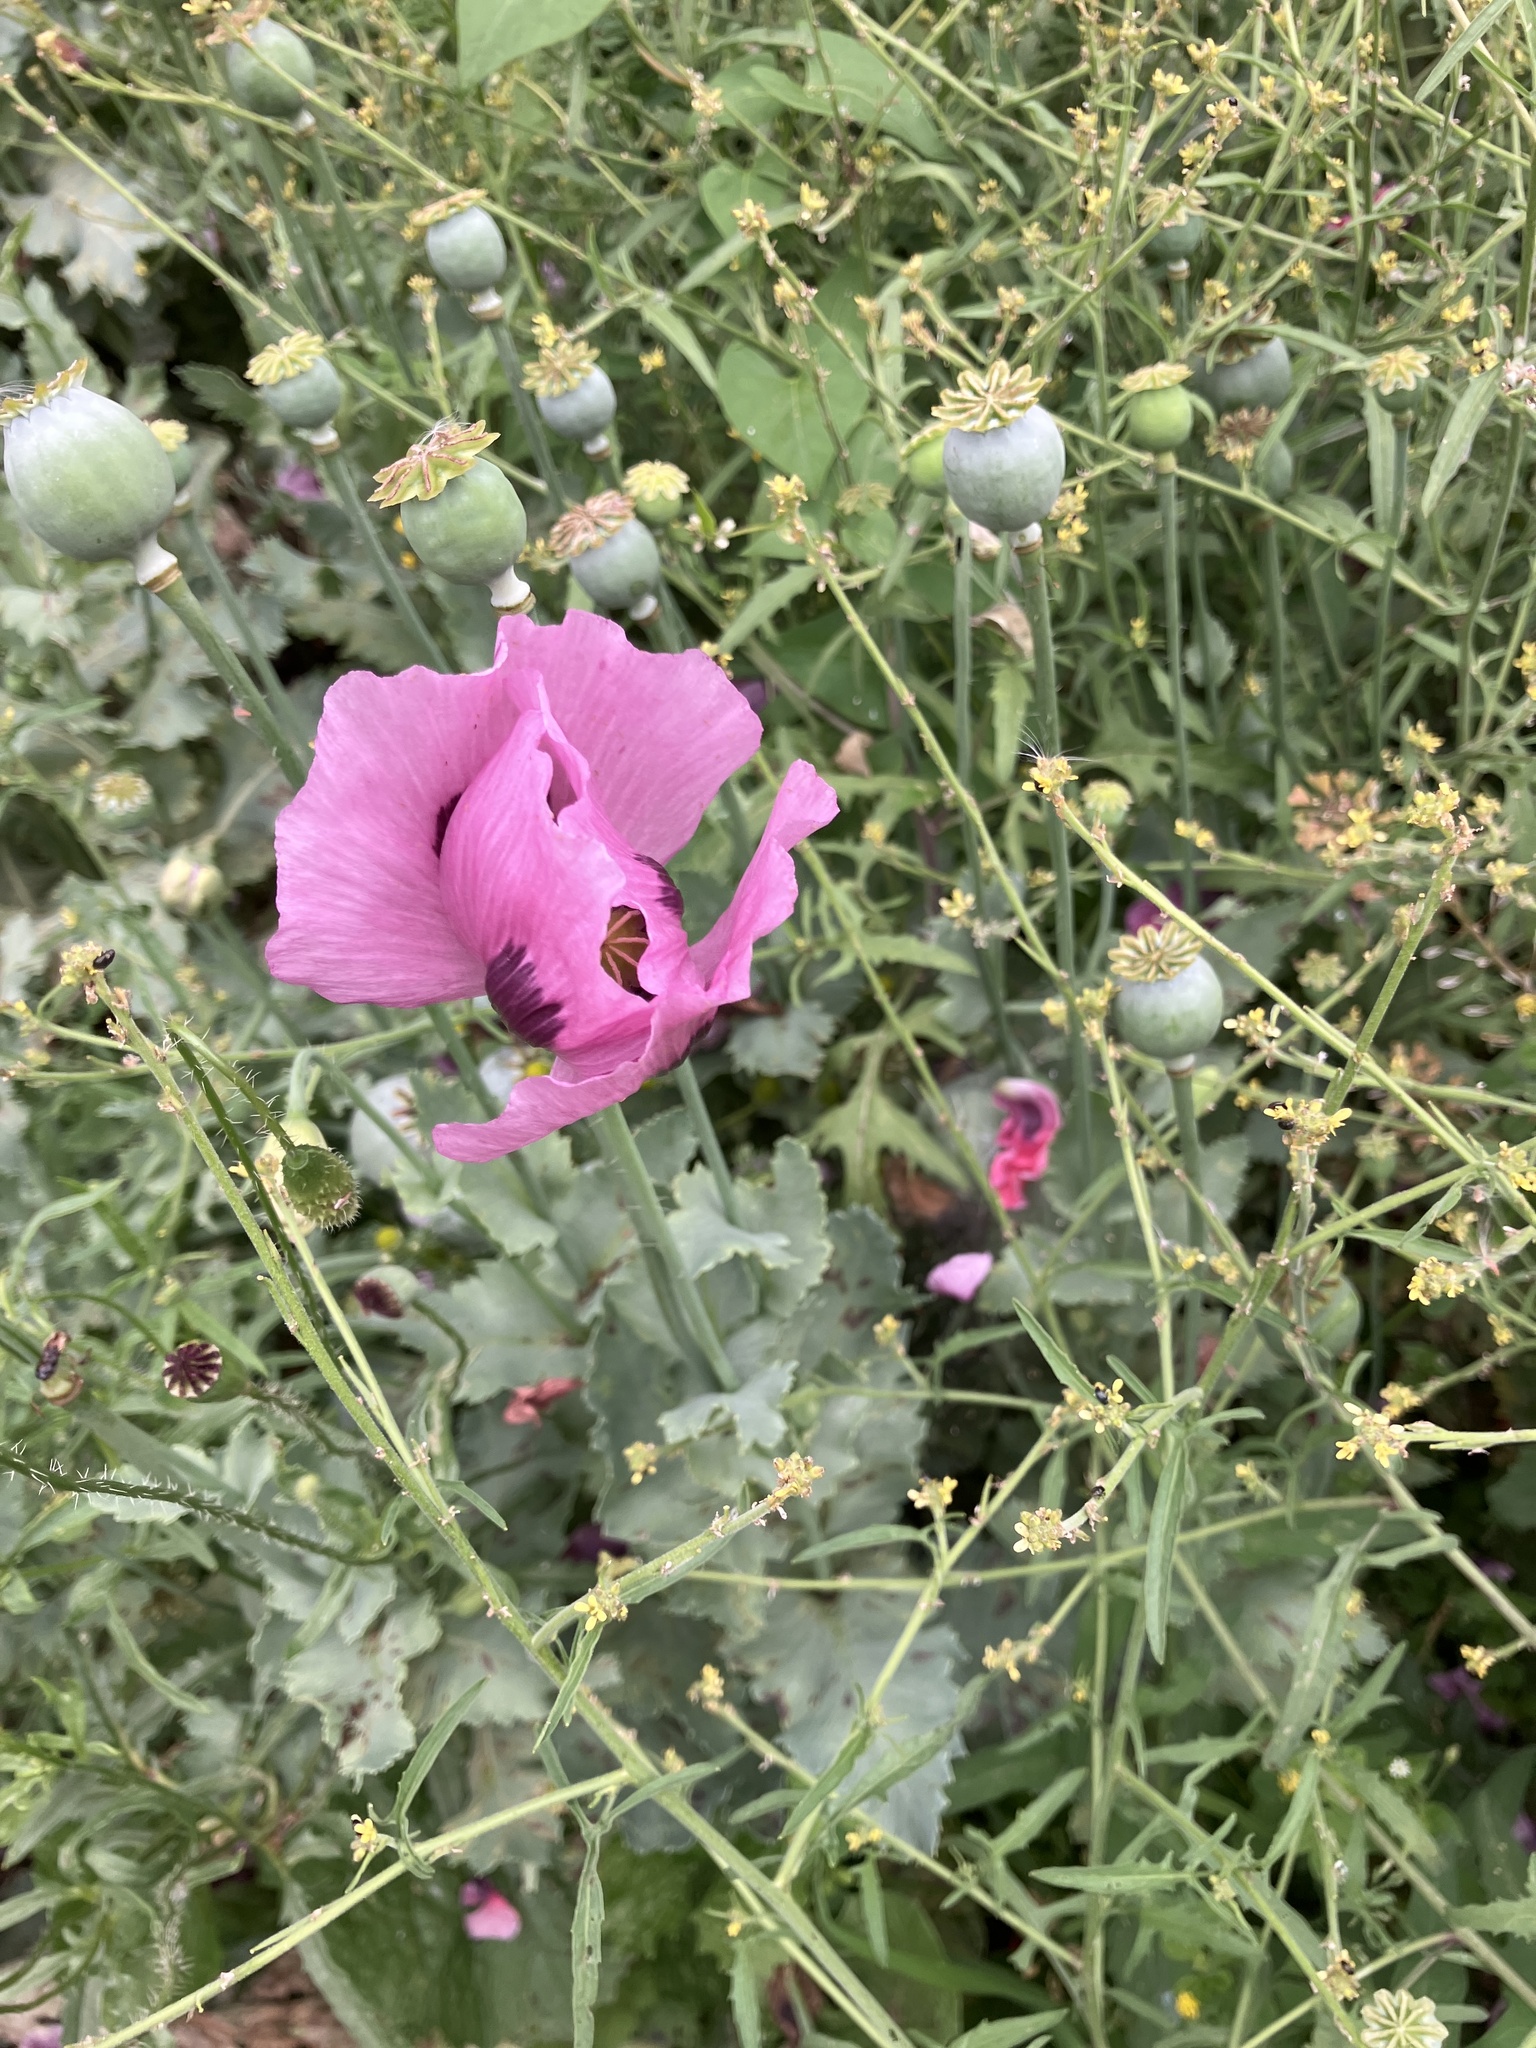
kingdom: Plantae
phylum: Tracheophyta
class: Magnoliopsida
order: Ranunculales
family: Papaveraceae
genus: Papaver
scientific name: Papaver somniferum
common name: Opium poppy
